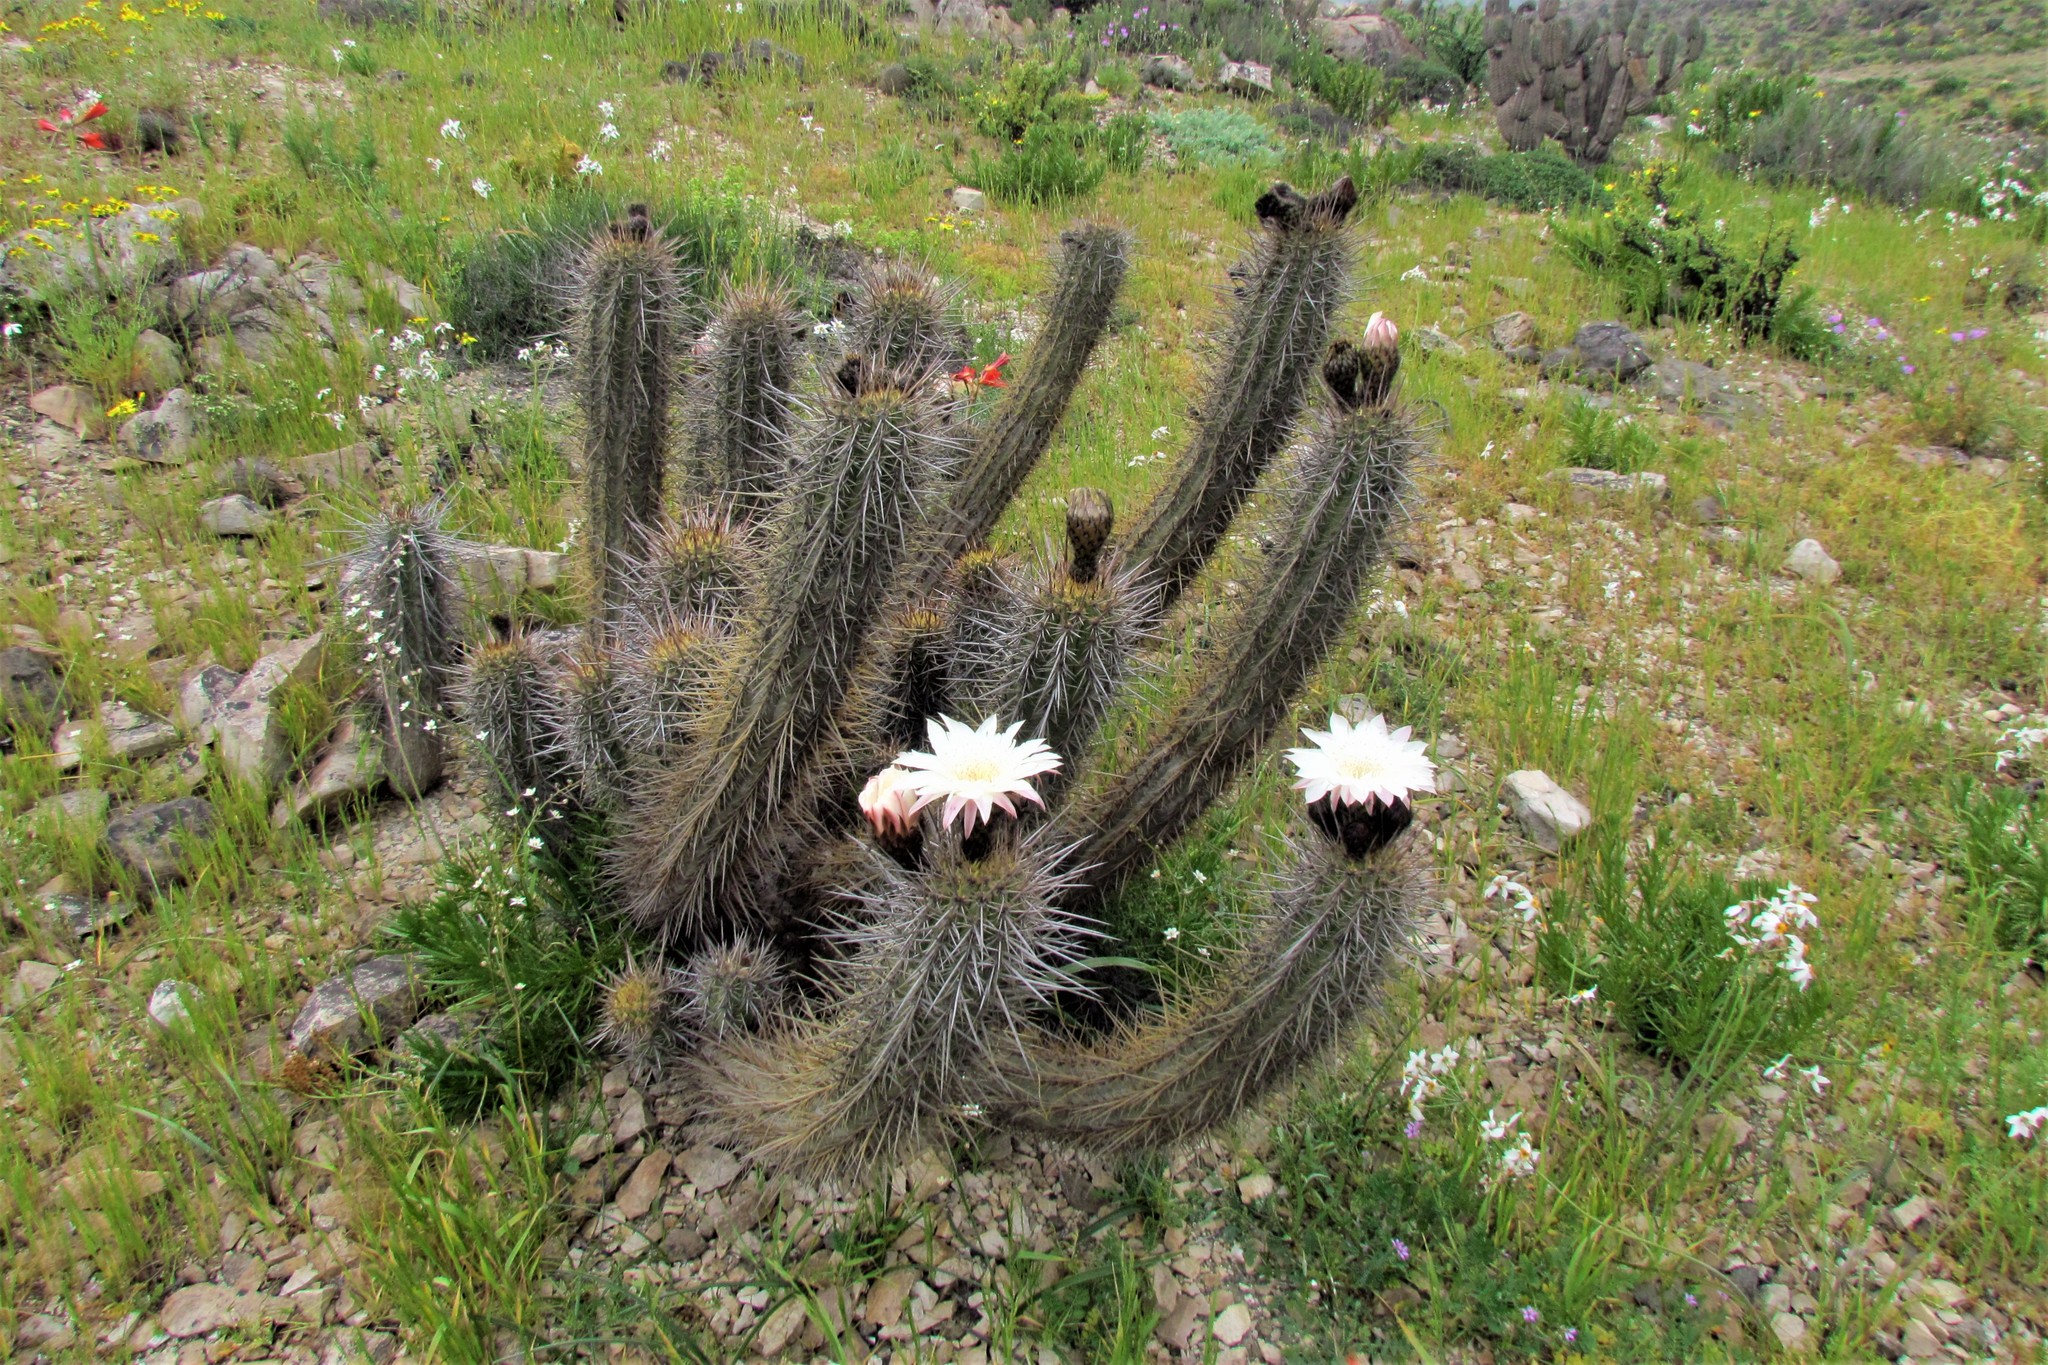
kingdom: Plantae
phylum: Tracheophyta
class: Magnoliopsida
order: Caryophyllales
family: Cactaceae
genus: Leucostele
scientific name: Leucostele deserticola
